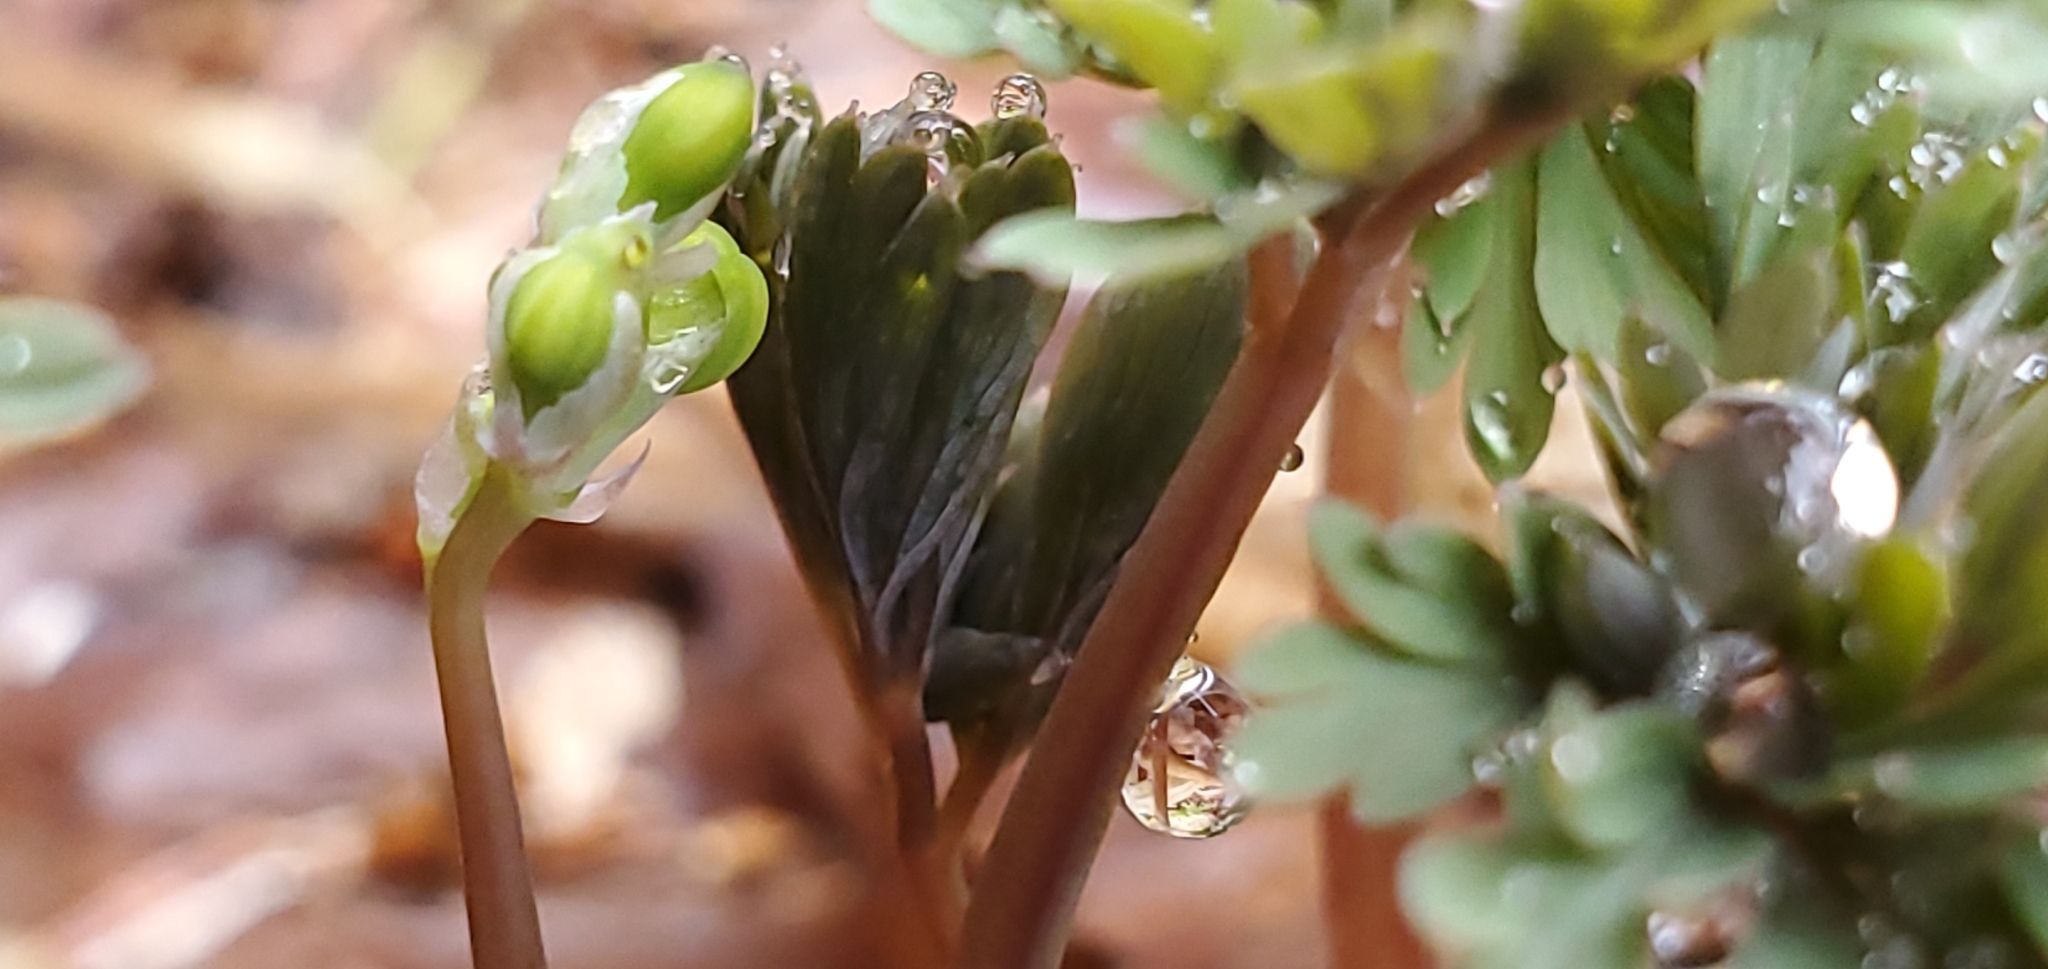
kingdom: Plantae
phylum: Tracheophyta
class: Magnoliopsida
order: Ranunculales
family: Papaveraceae
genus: Dicentra
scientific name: Dicentra cucullaria
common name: Dutchman's breeches
